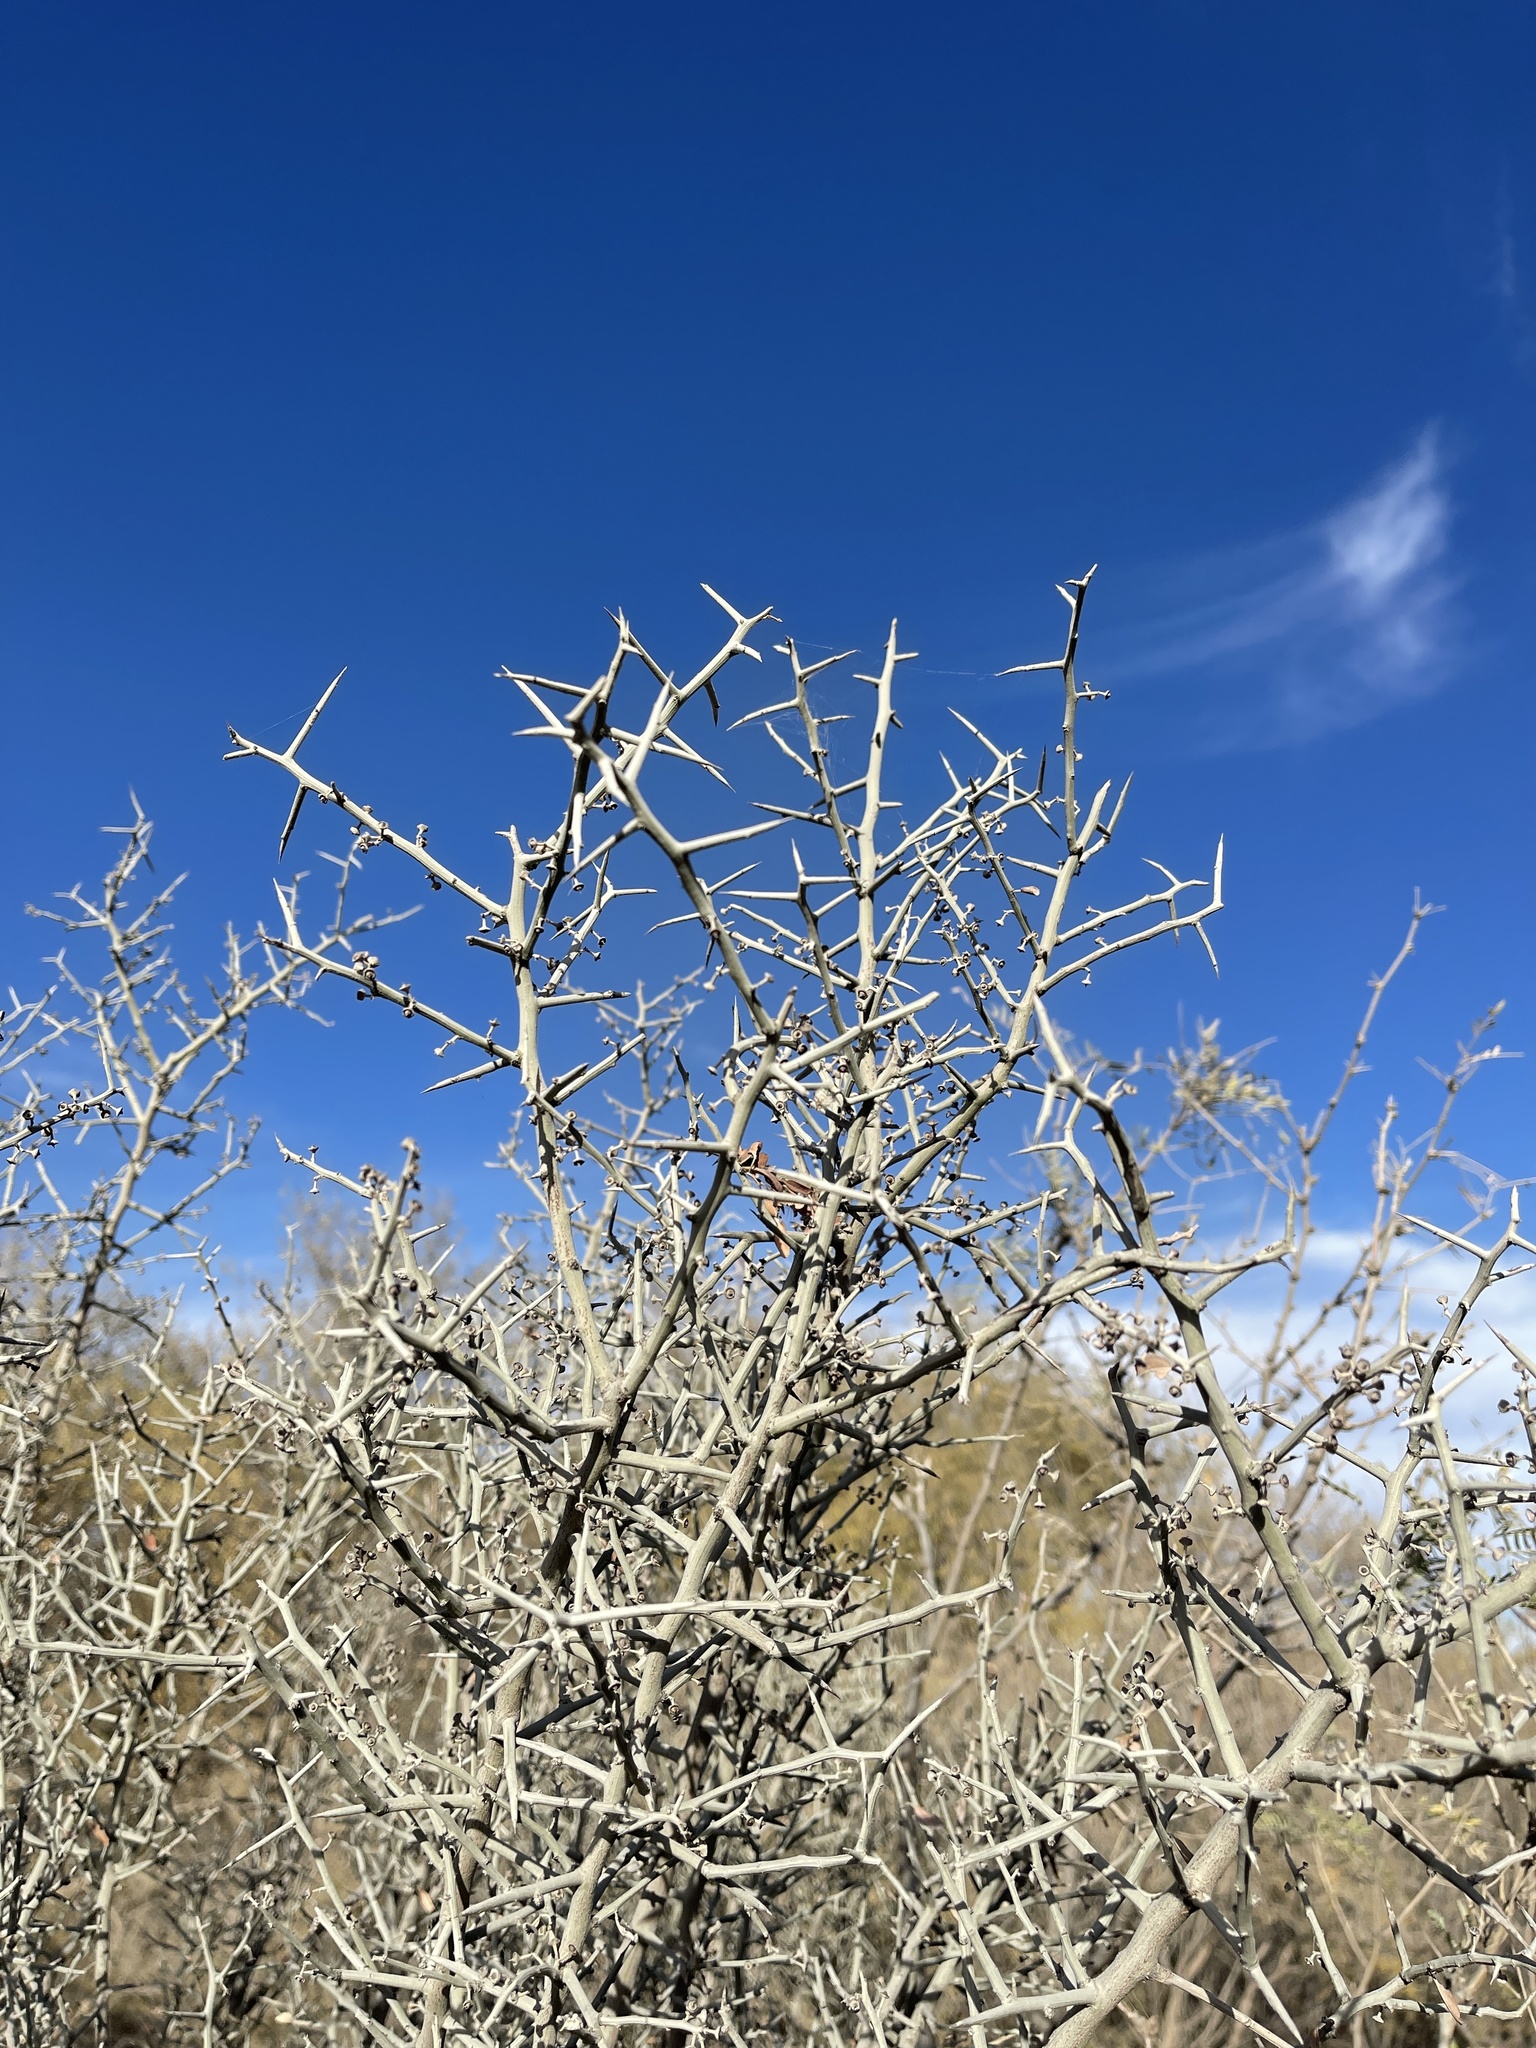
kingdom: Plantae
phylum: Tracheophyta
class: Magnoliopsida
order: Rosales
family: Rhamnaceae
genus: Sarcomphalus
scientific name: Sarcomphalus obtusifolius
